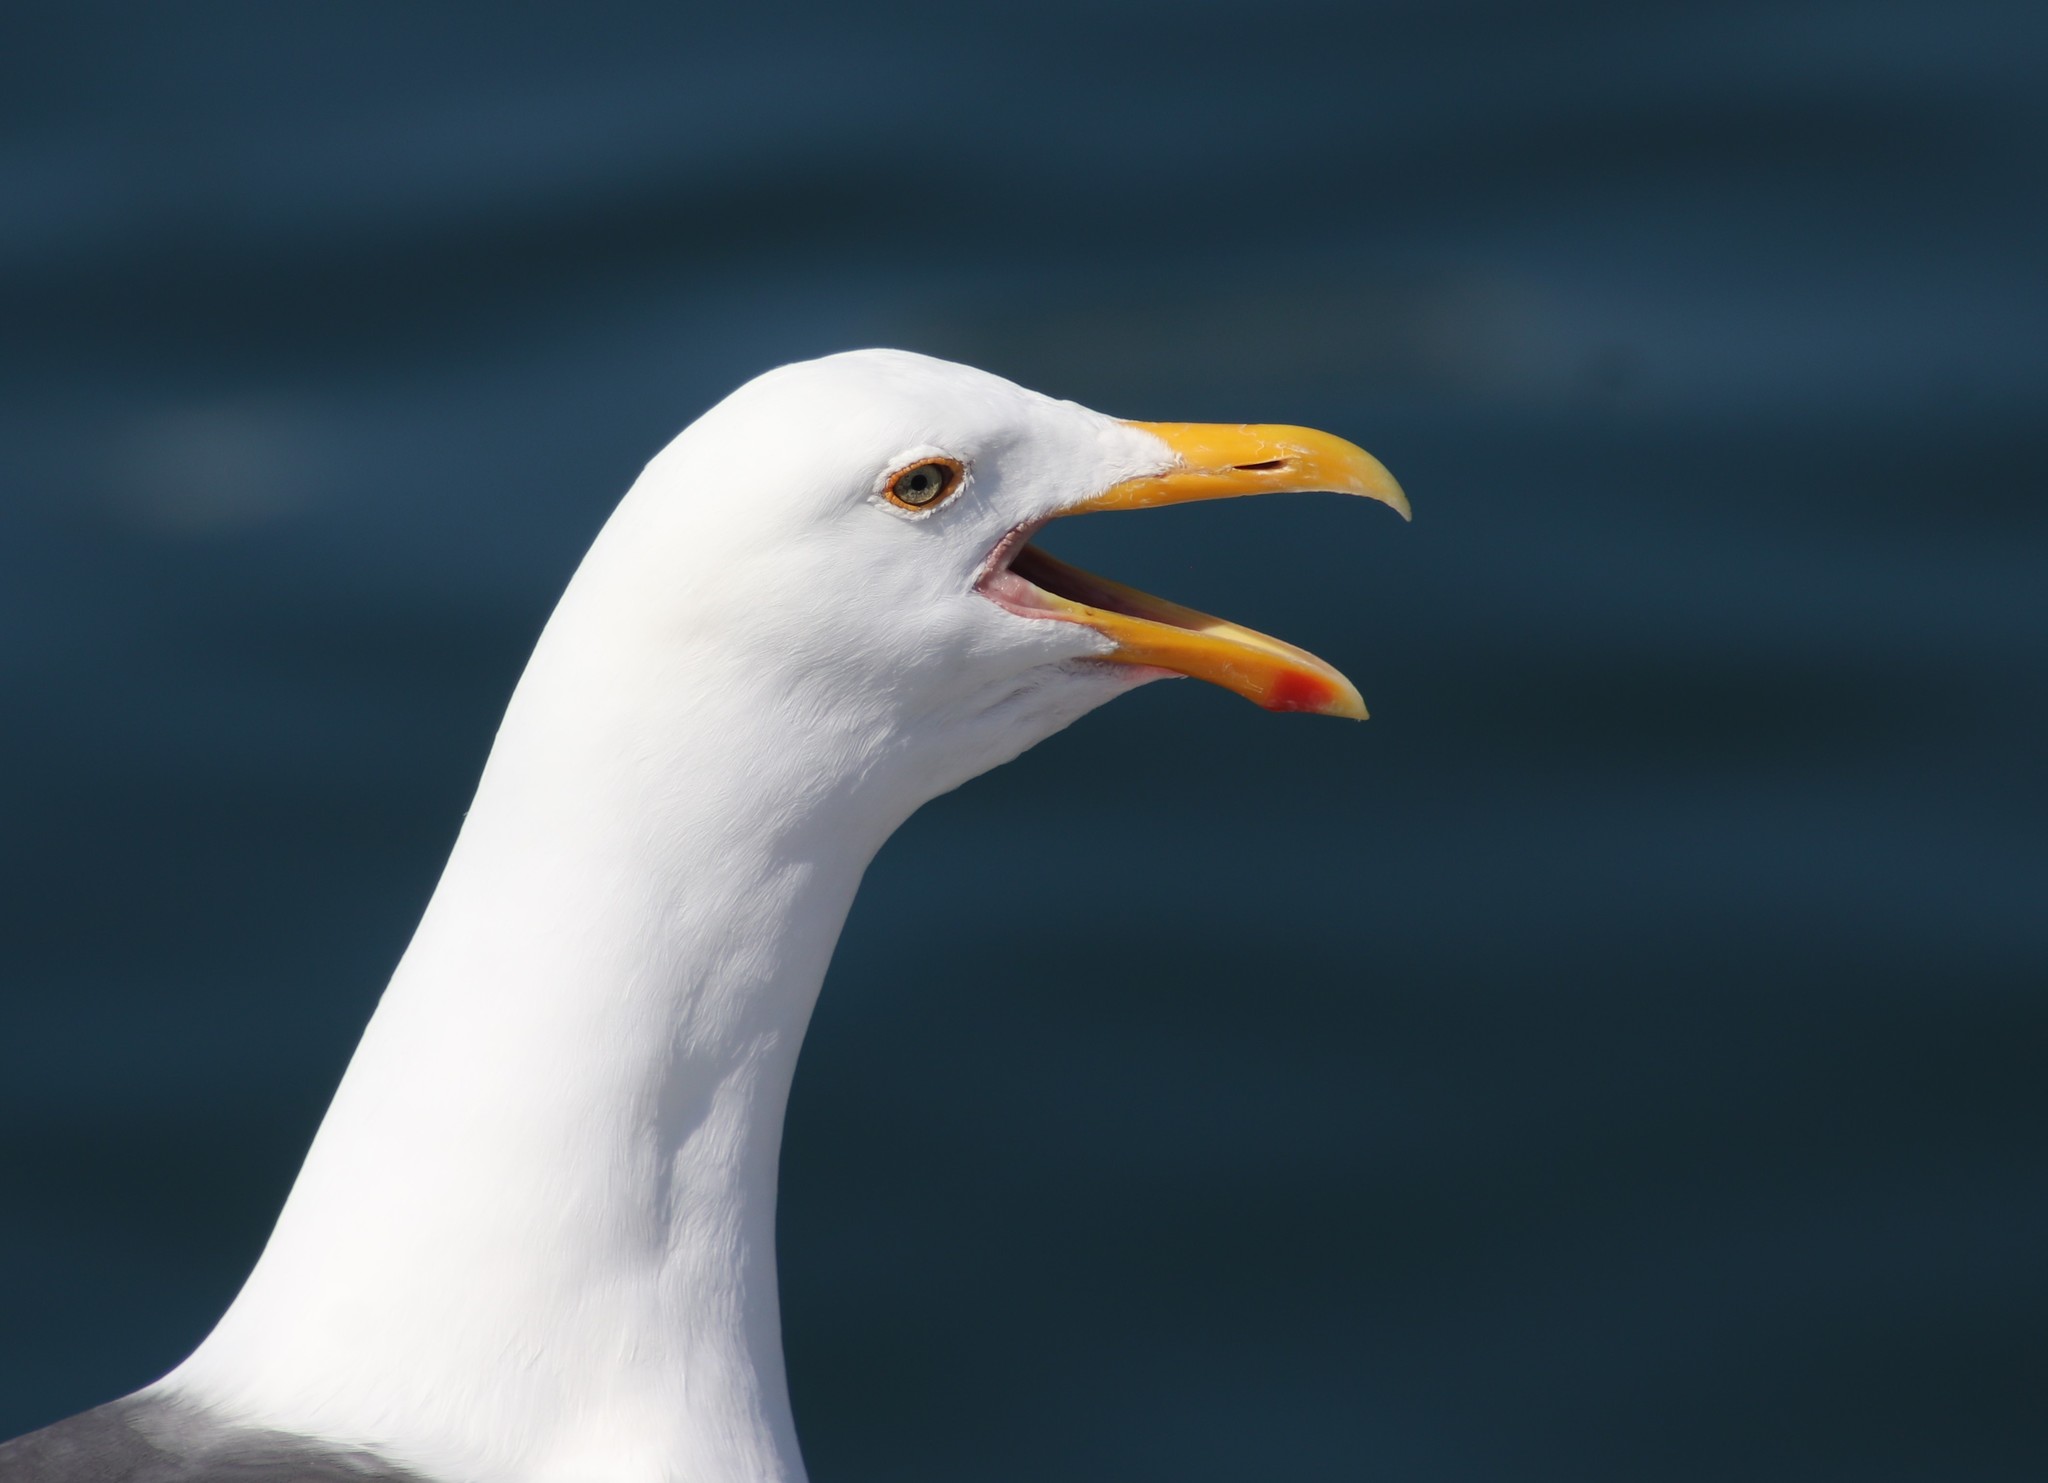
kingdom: Animalia
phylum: Chordata
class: Aves
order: Charadriiformes
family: Laridae
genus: Larus
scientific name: Larus occidentalis
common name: Western gull
